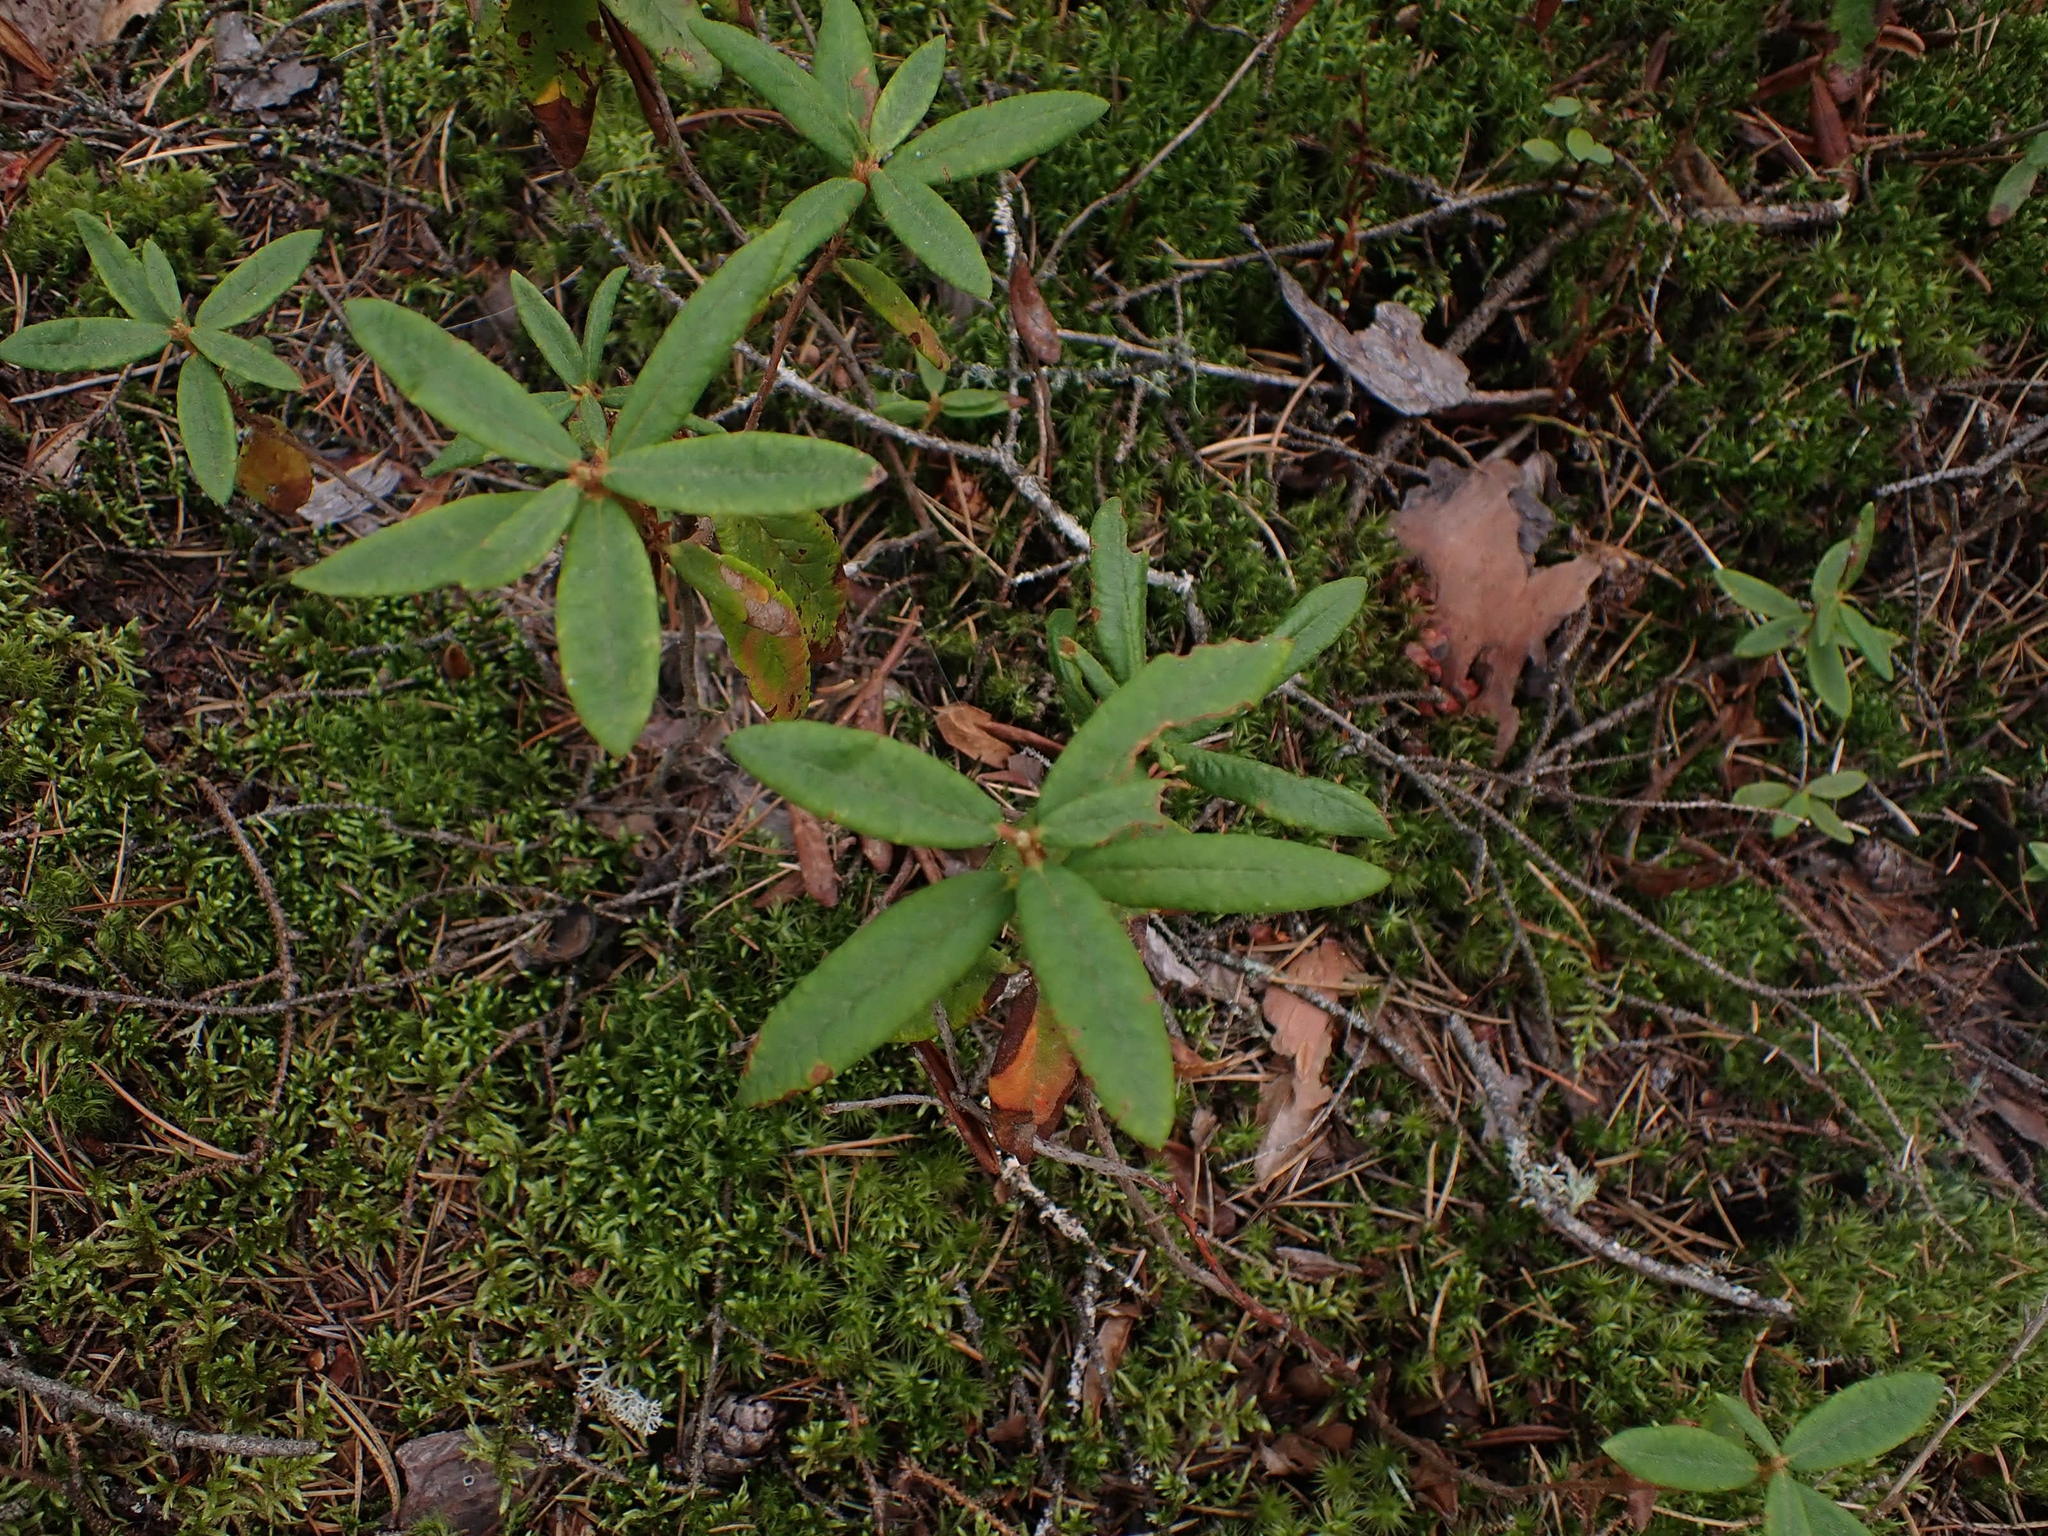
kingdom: Plantae
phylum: Tracheophyta
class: Magnoliopsida
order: Ericales
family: Ericaceae
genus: Rhododendron
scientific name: Rhododendron groenlandicum
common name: Bog labrador tea
